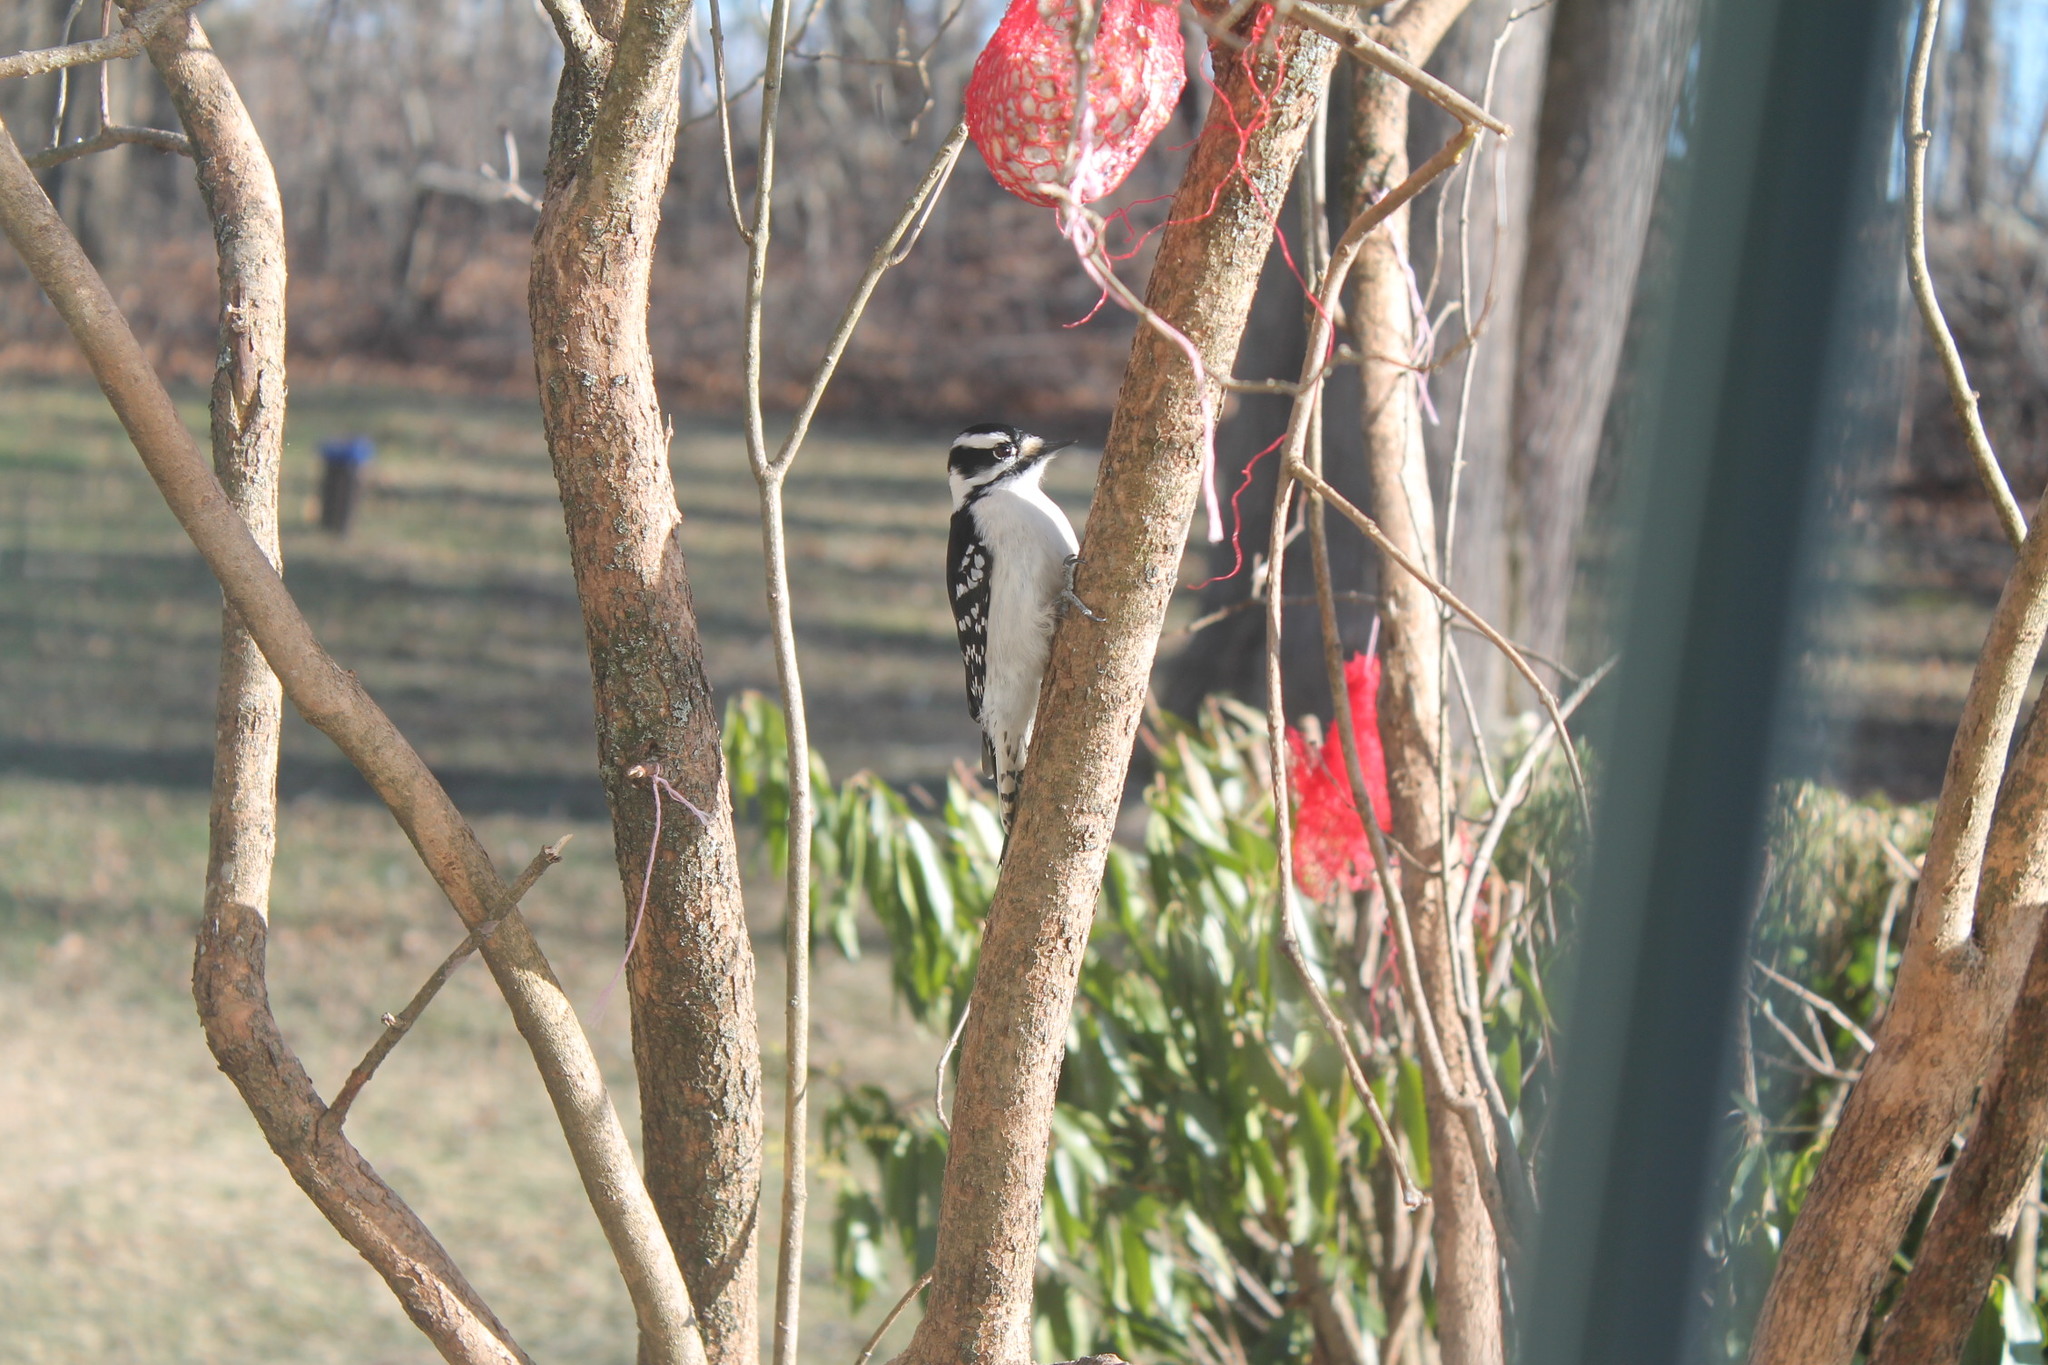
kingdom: Animalia
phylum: Chordata
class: Aves
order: Piciformes
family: Picidae
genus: Dryobates
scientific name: Dryobates pubescens
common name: Downy woodpecker
